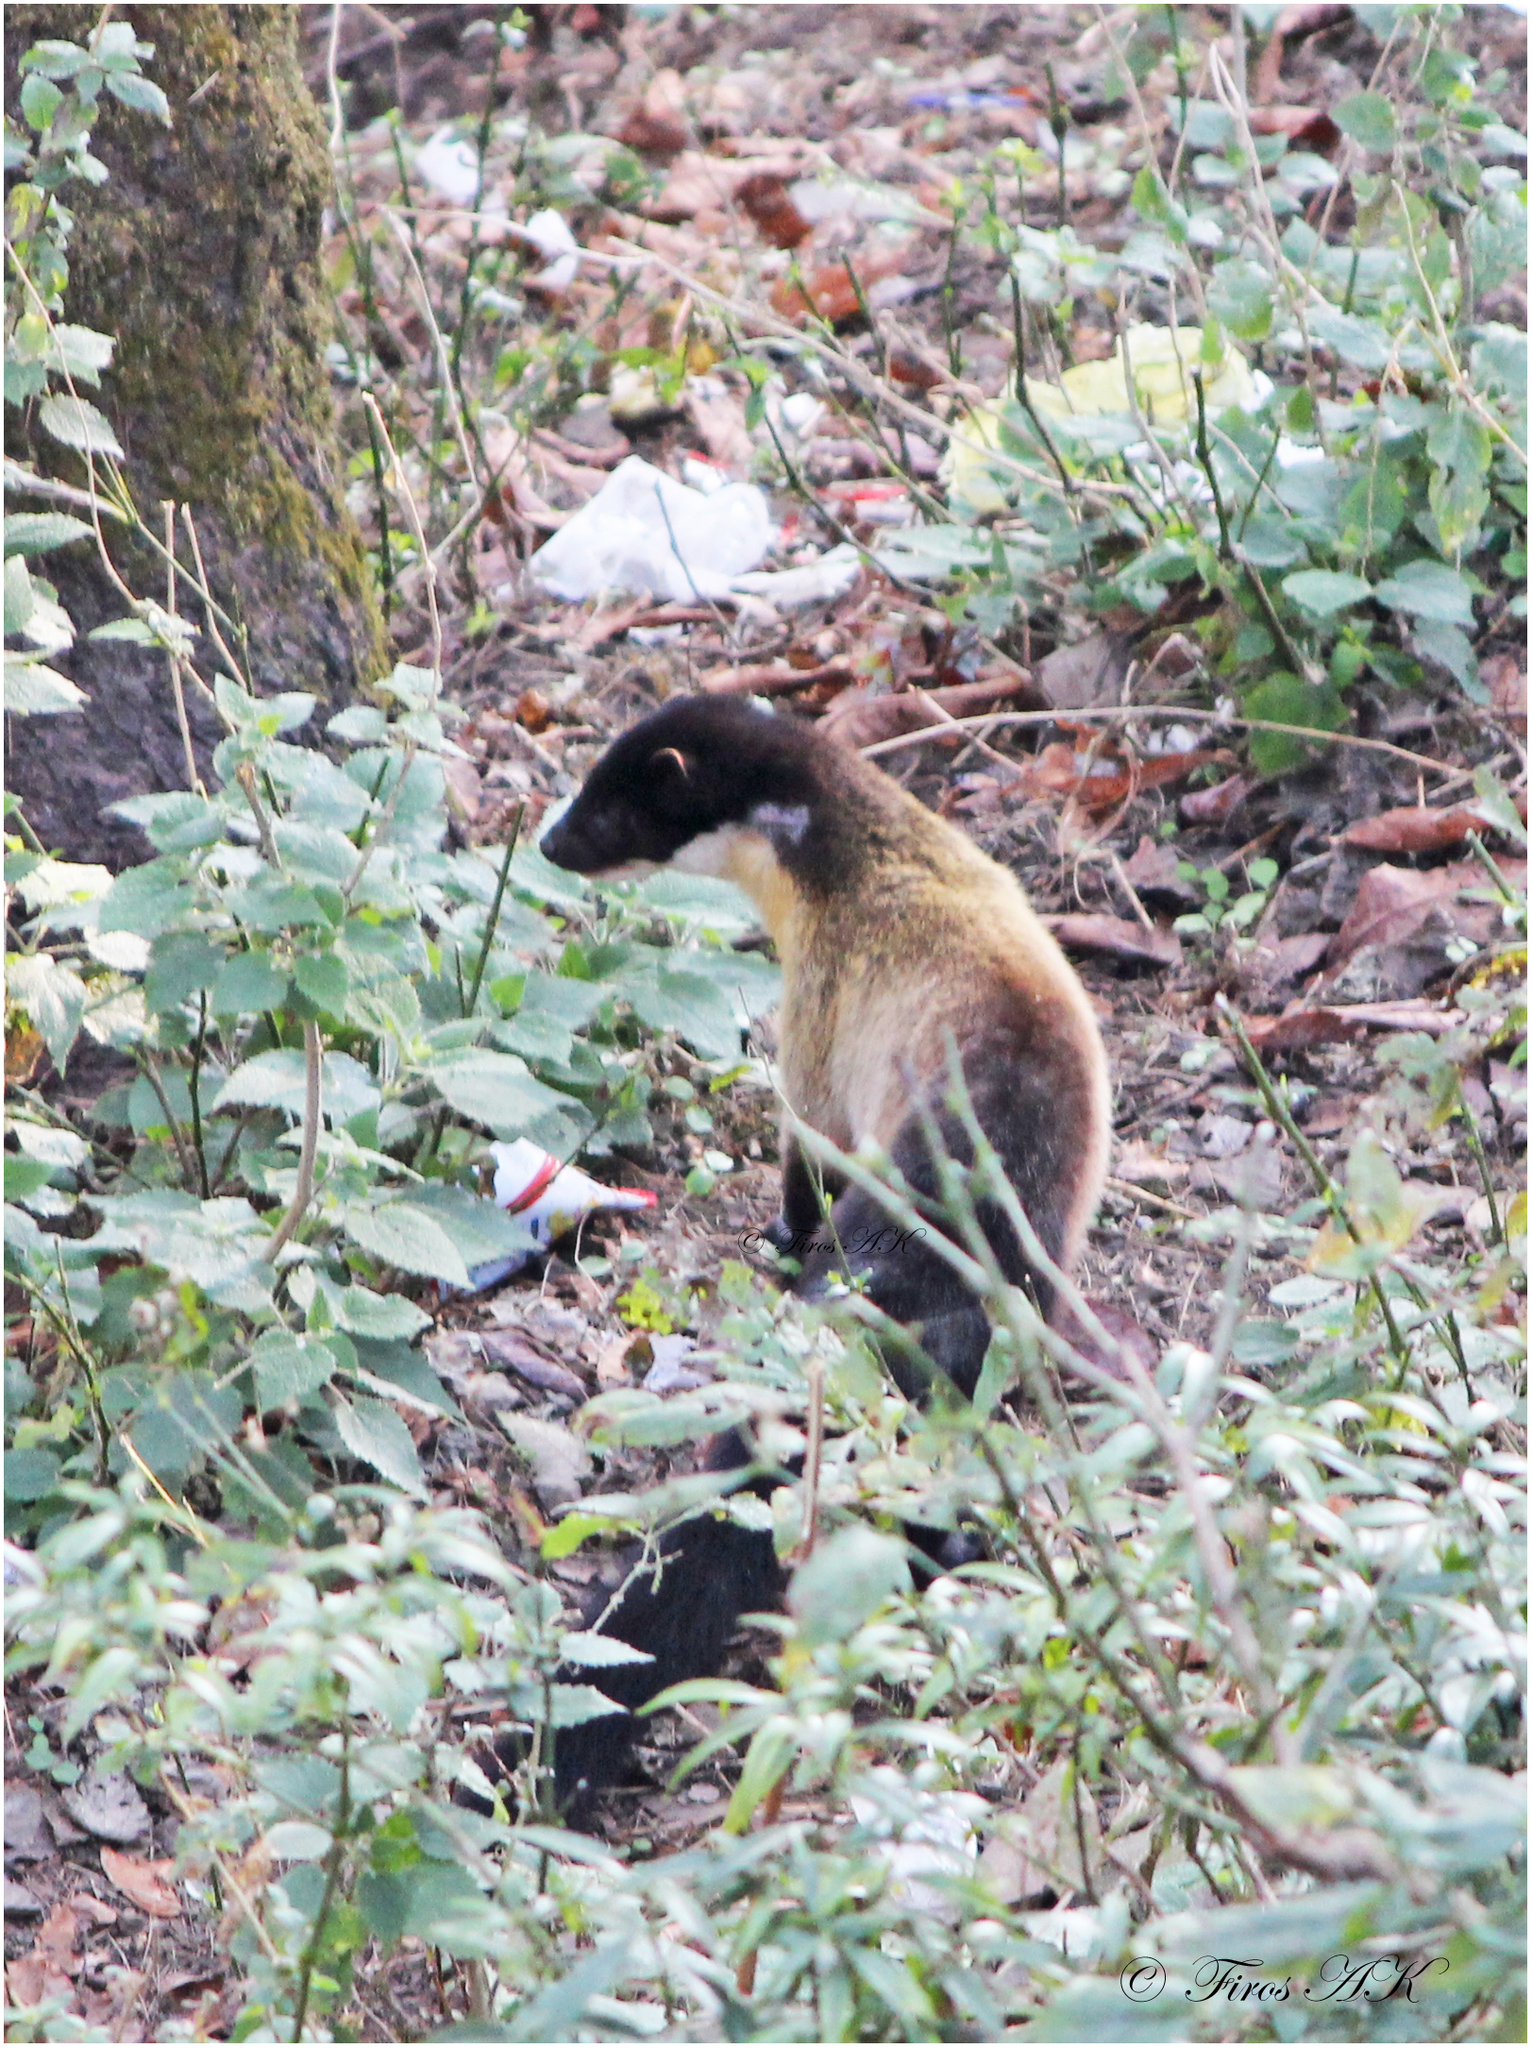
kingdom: Animalia
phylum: Chordata
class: Mammalia
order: Carnivora
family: Mustelidae
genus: Martes
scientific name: Martes flavigula
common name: Yellow-throated marten
